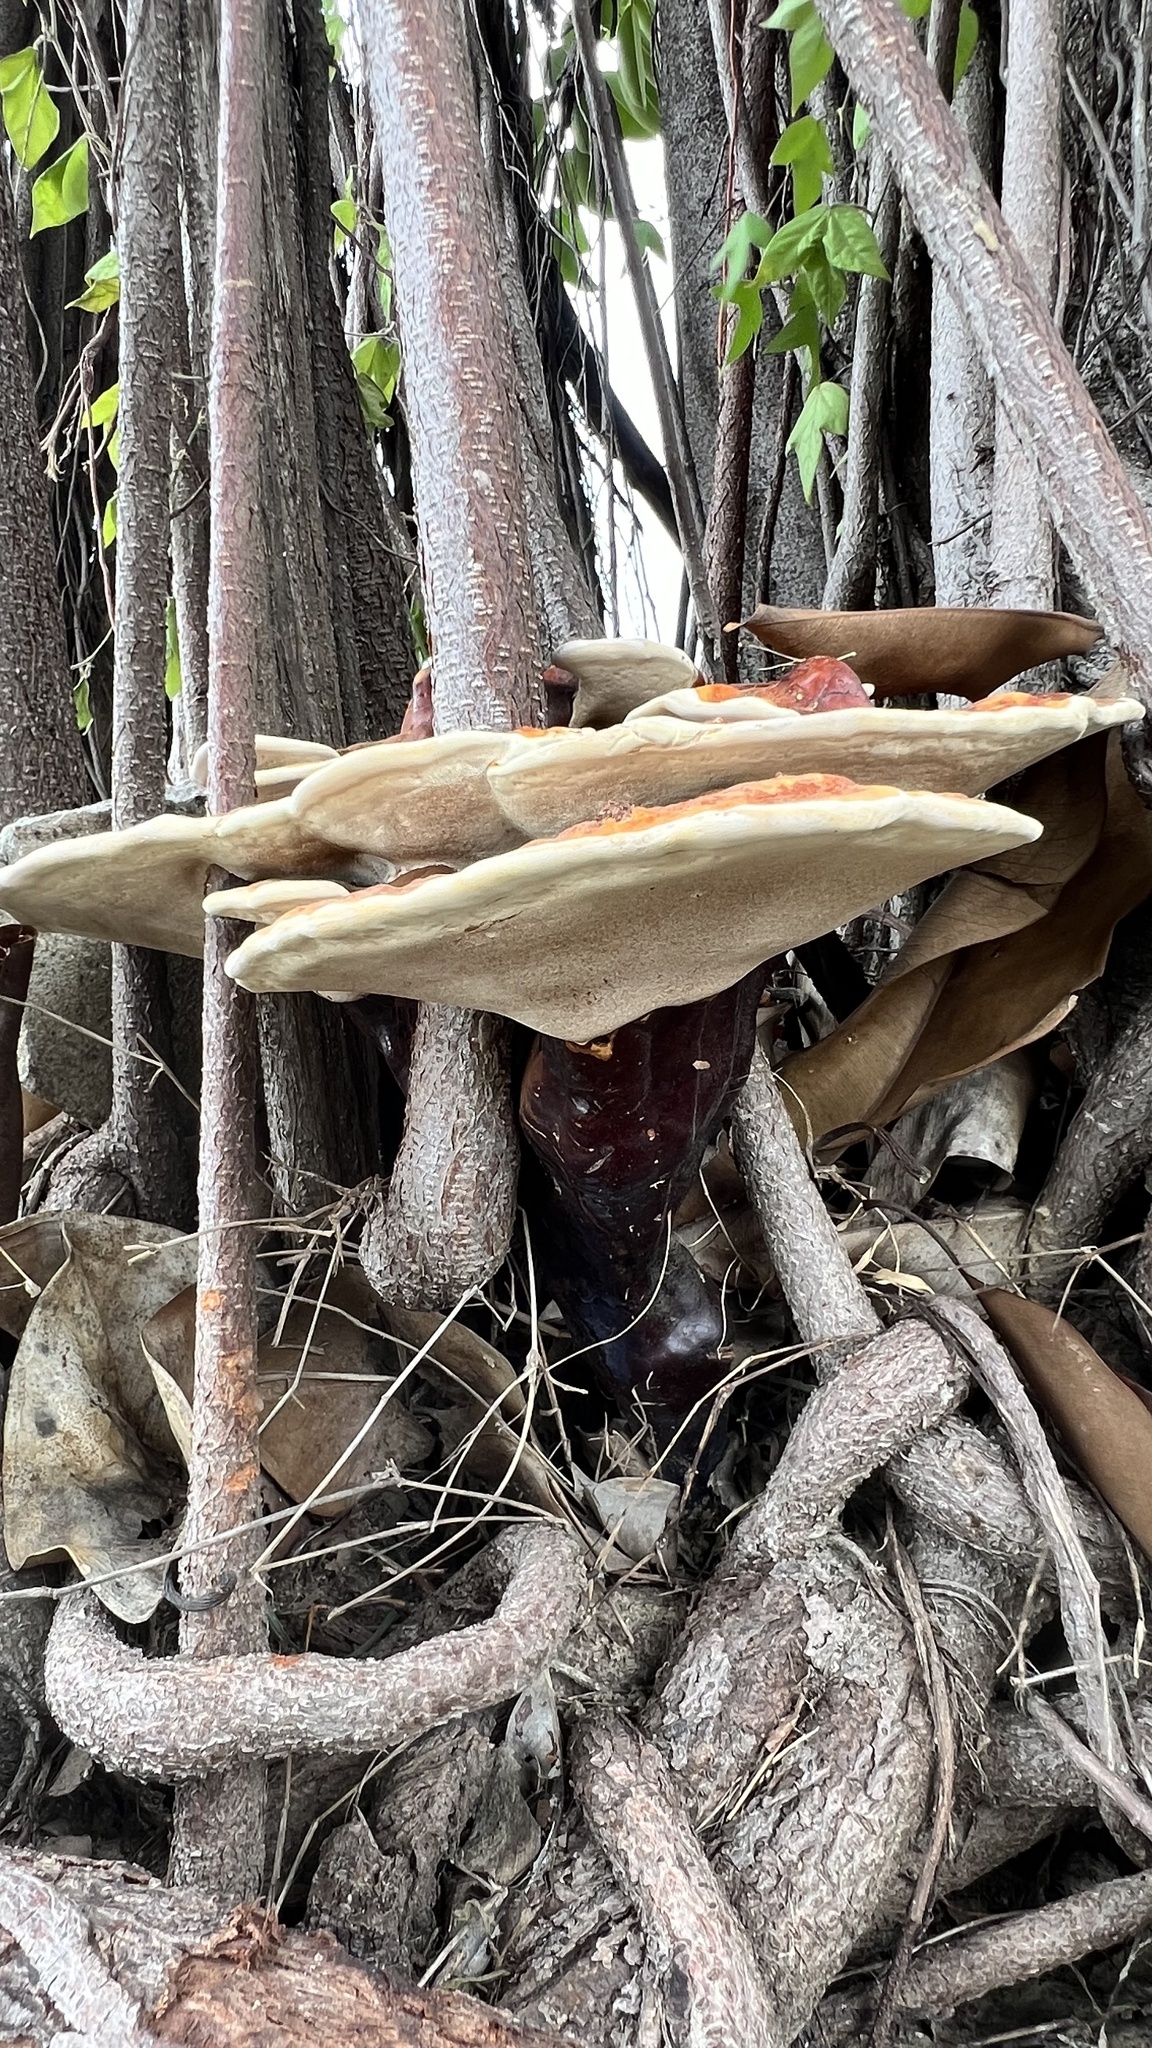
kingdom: Fungi
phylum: Basidiomycota
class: Agaricomycetes
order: Polyporales
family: Polyporaceae
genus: Ganoderma
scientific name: Ganoderma resinaceum
